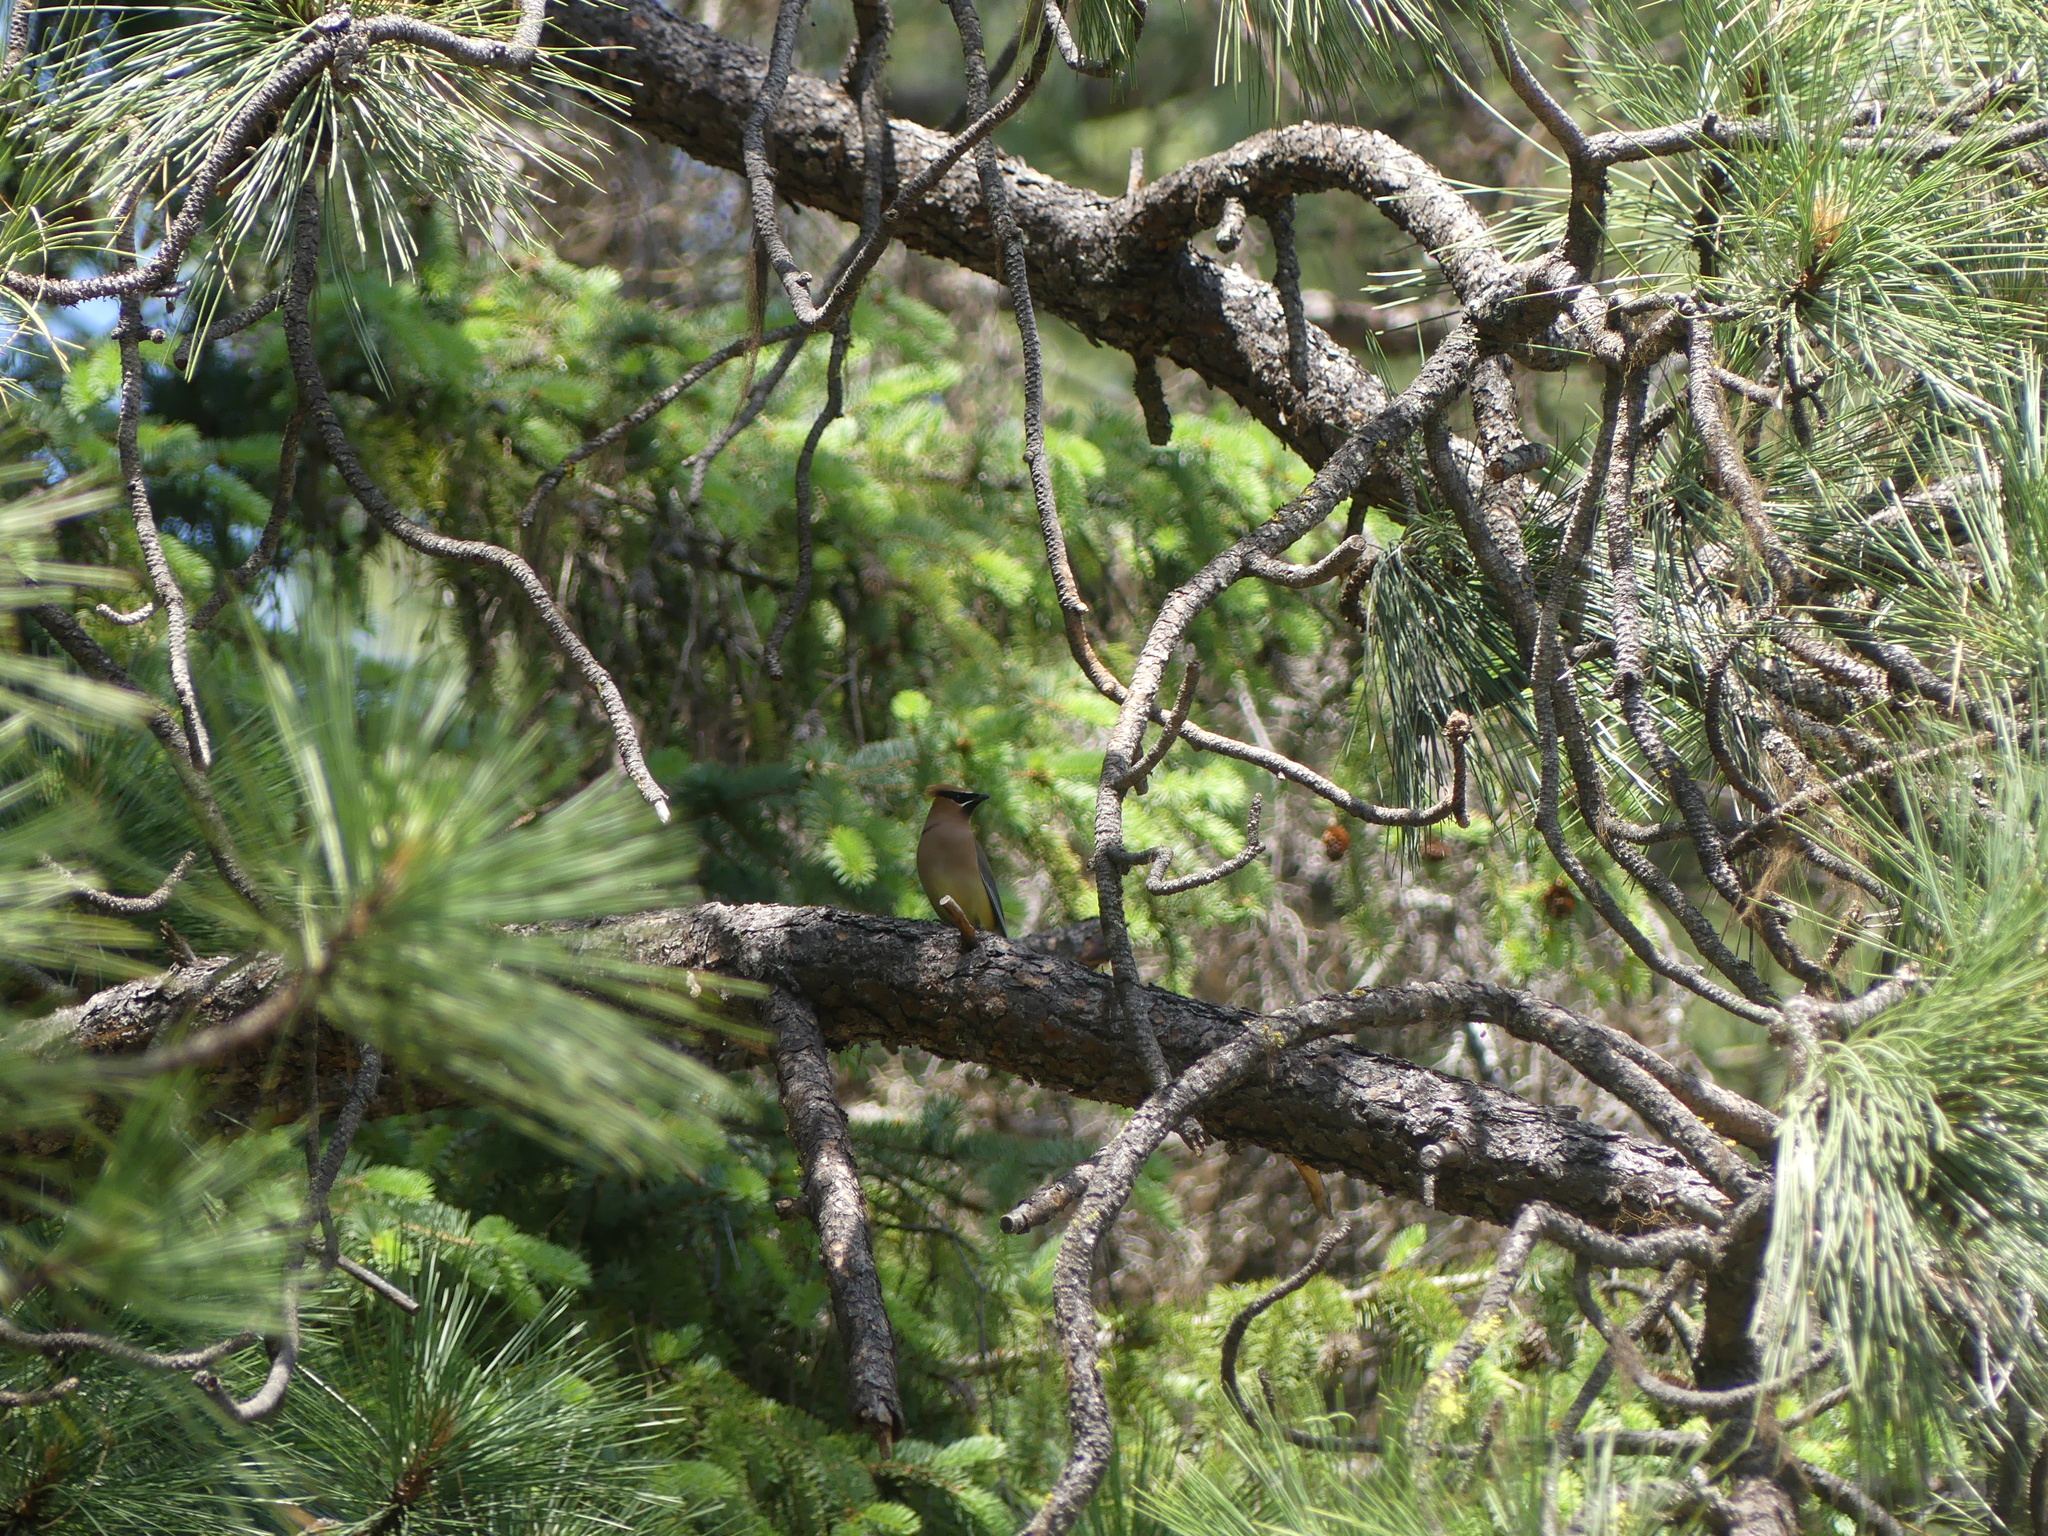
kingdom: Animalia
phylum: Chordata
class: Aves
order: Passeriformes
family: Bombycillidae
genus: Bombycilla
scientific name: Bombycilla cedrorum
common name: Cedar waxwing
